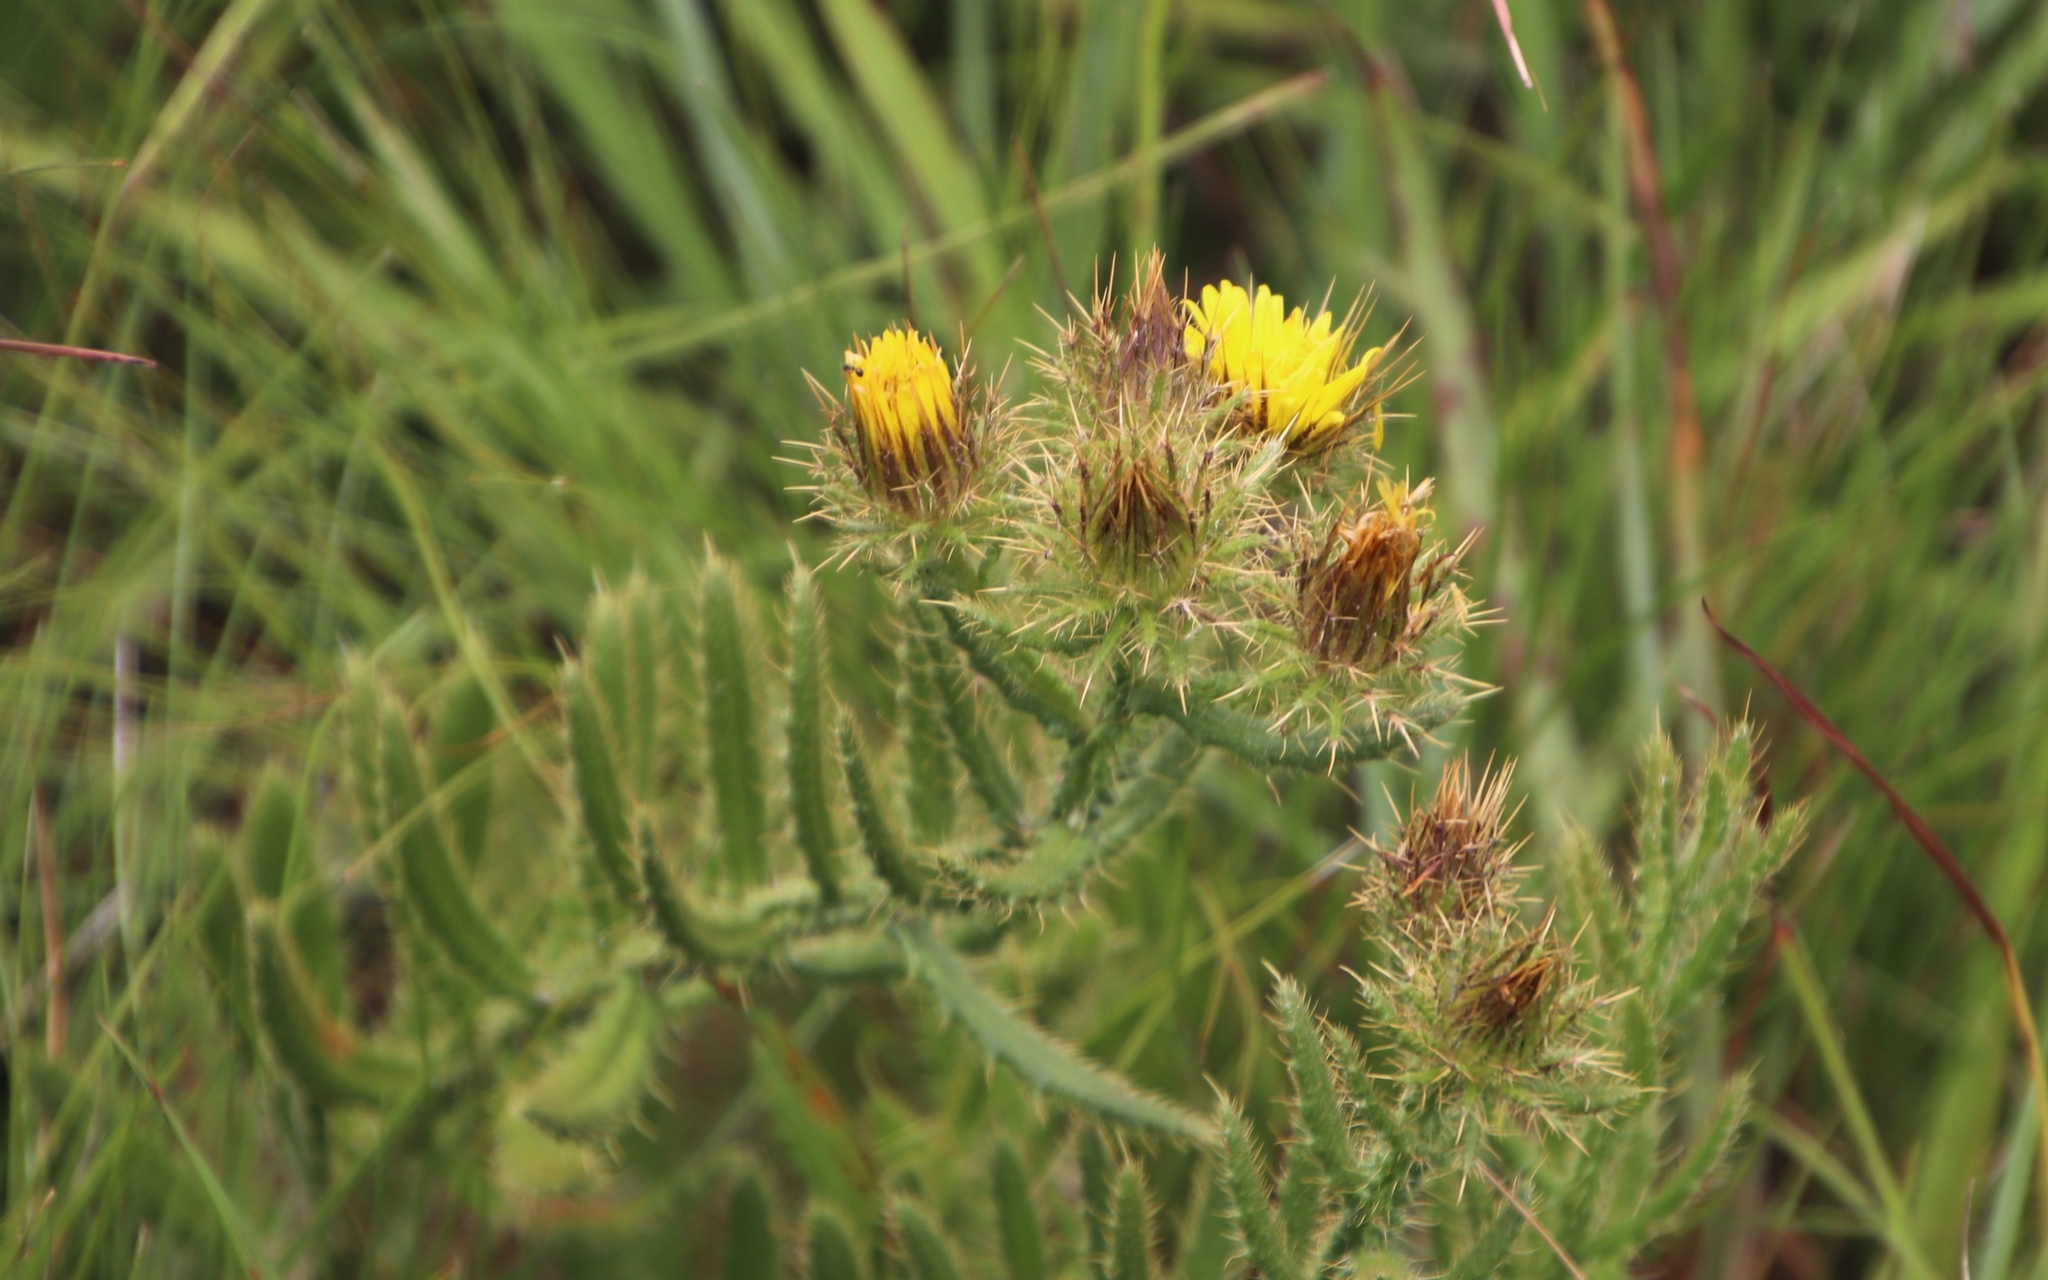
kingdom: Plantae
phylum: Tracheophyta
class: Magnoliopsida
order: Asterales
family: Asteraceae
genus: Berkheya
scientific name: Berkheya echinacea
